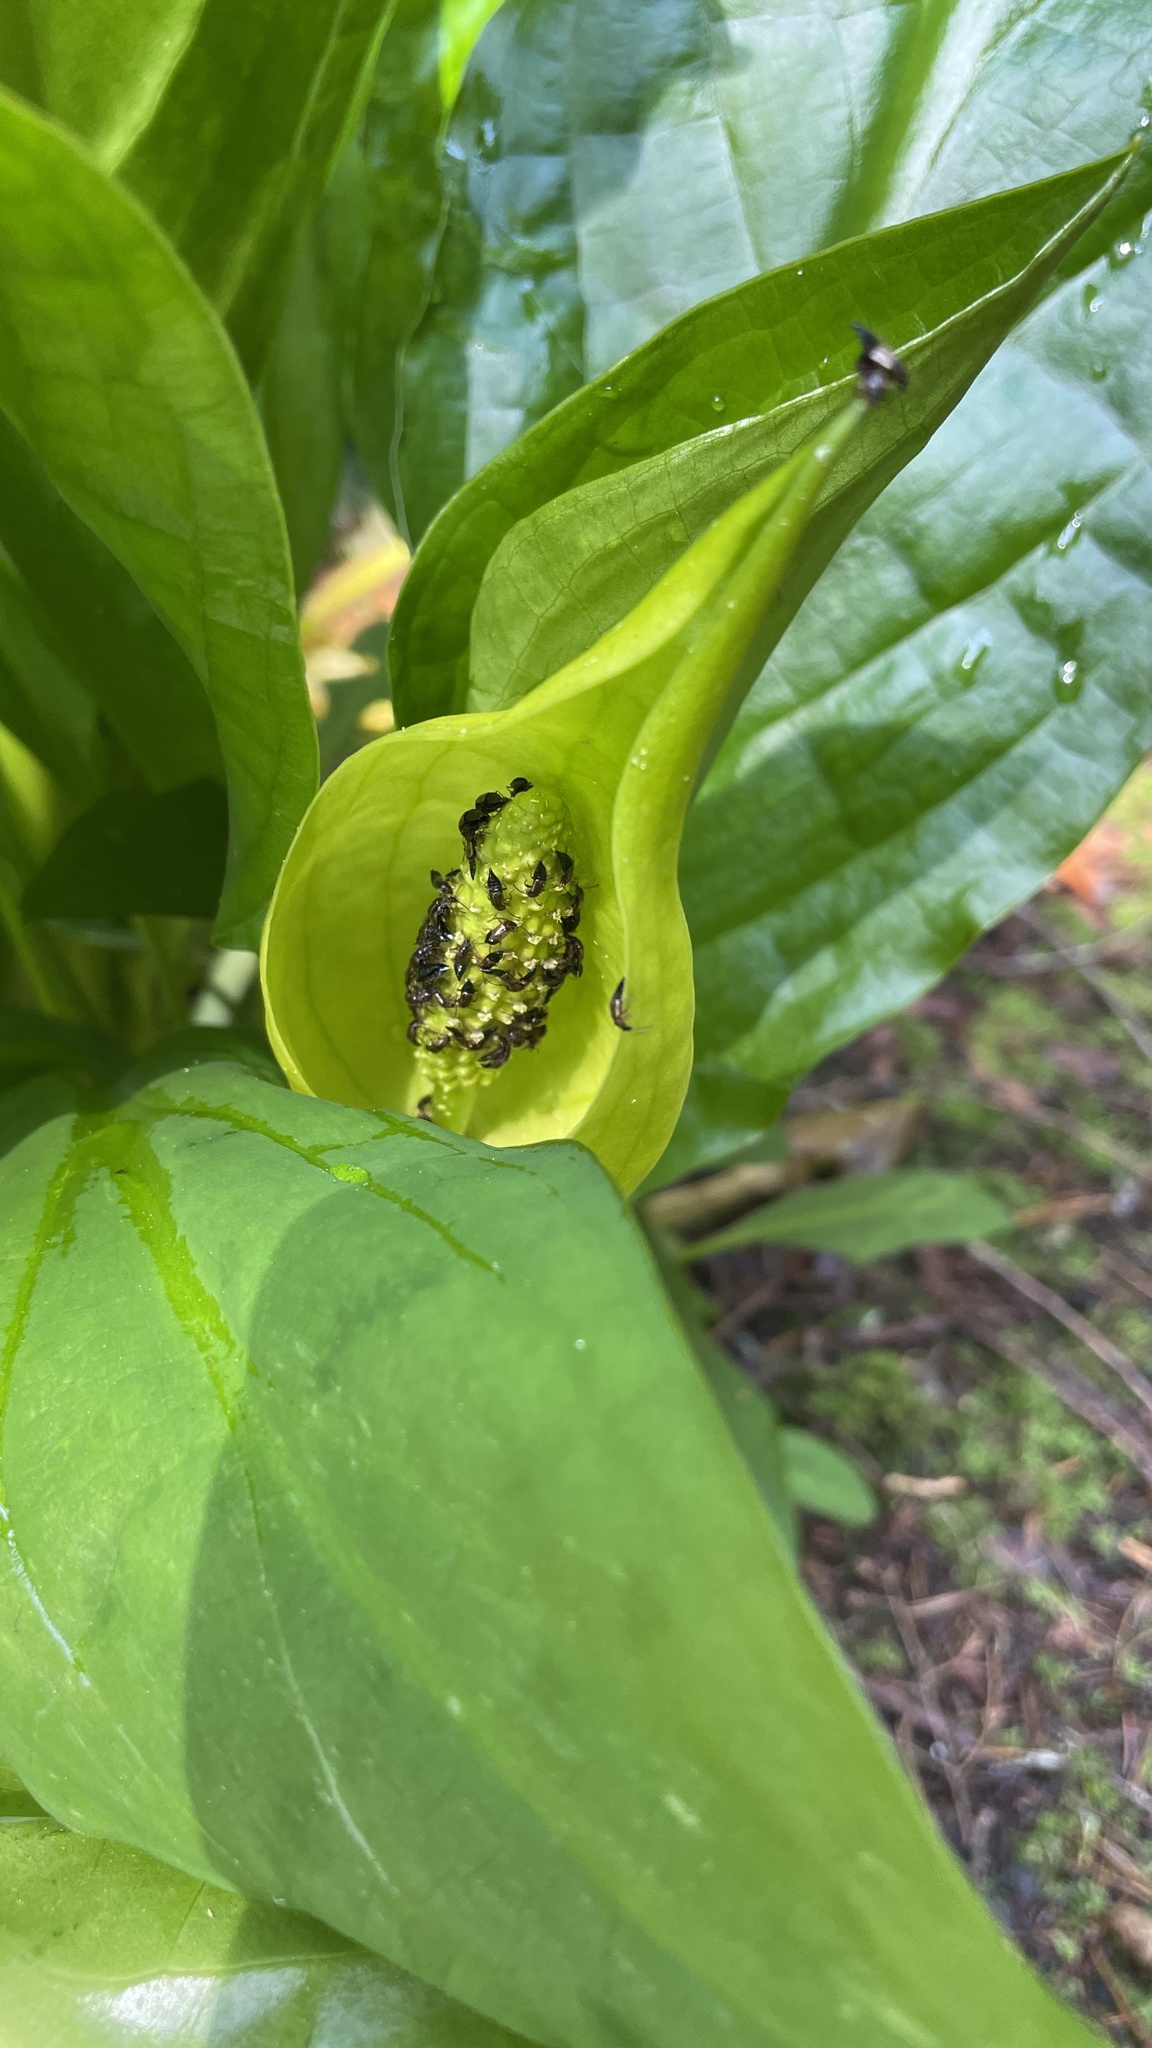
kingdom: Plantae
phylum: Tracheophyta
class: Liliopsida
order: Alismatales
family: Araceae
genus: Lysichiton
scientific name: Lysichiton americanus
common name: American skunk cabbage
